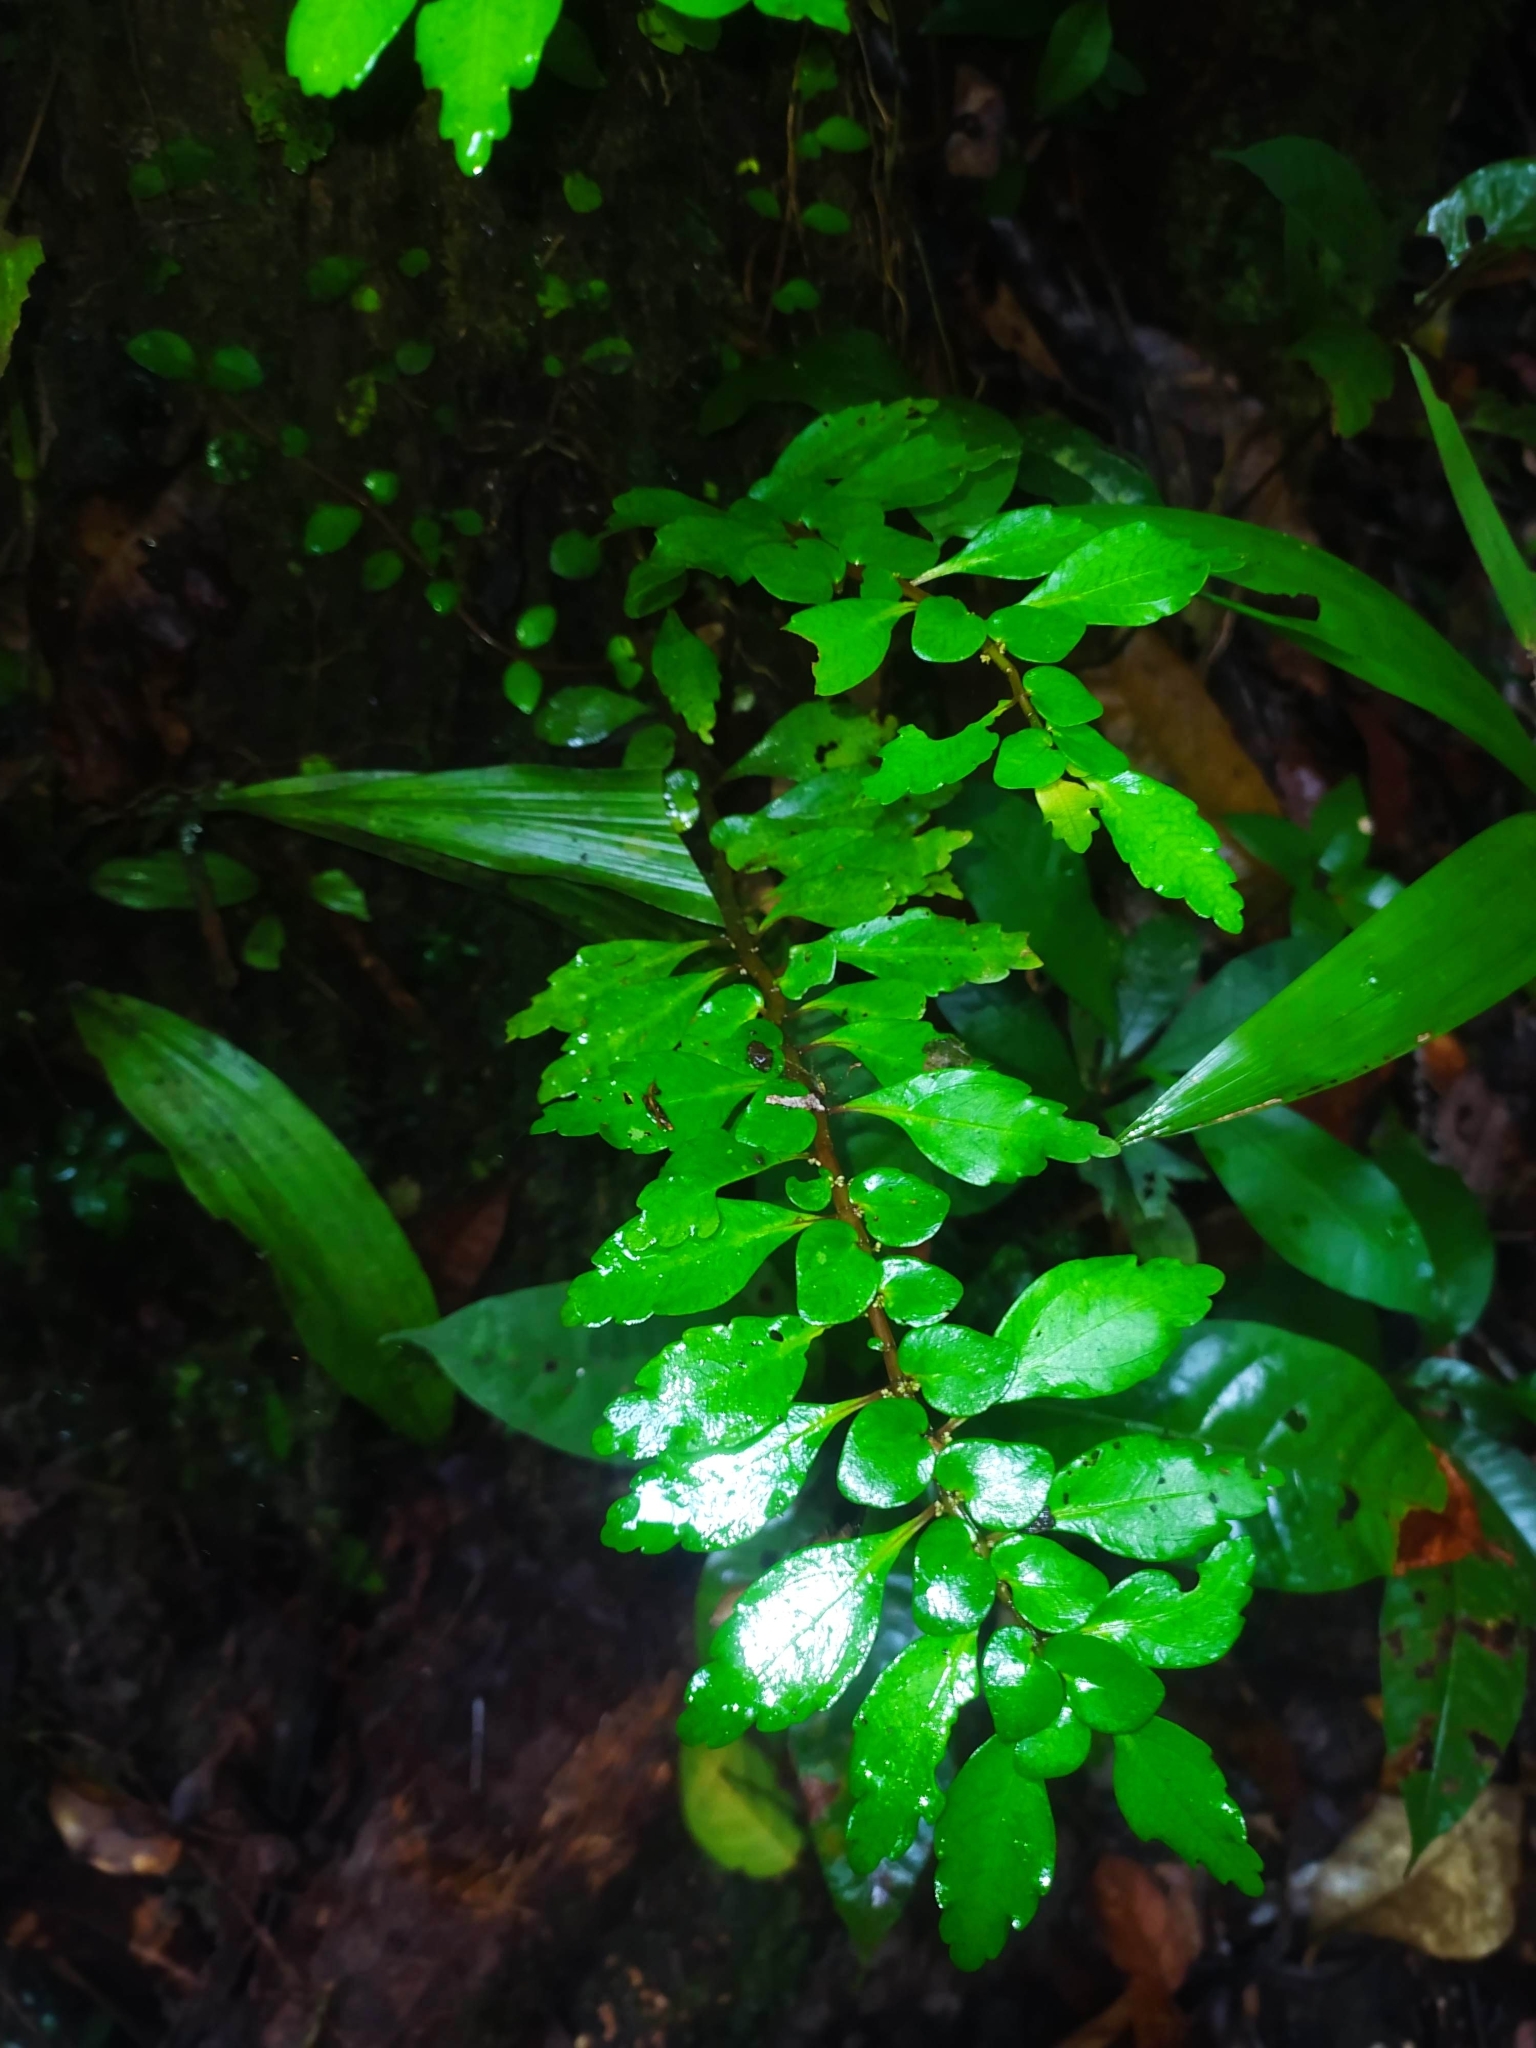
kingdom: Plantae
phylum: Tracheophyta
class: Magnoliopsida
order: Rosales
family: Urticaceae
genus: Pilea
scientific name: Pilea imparifolia
